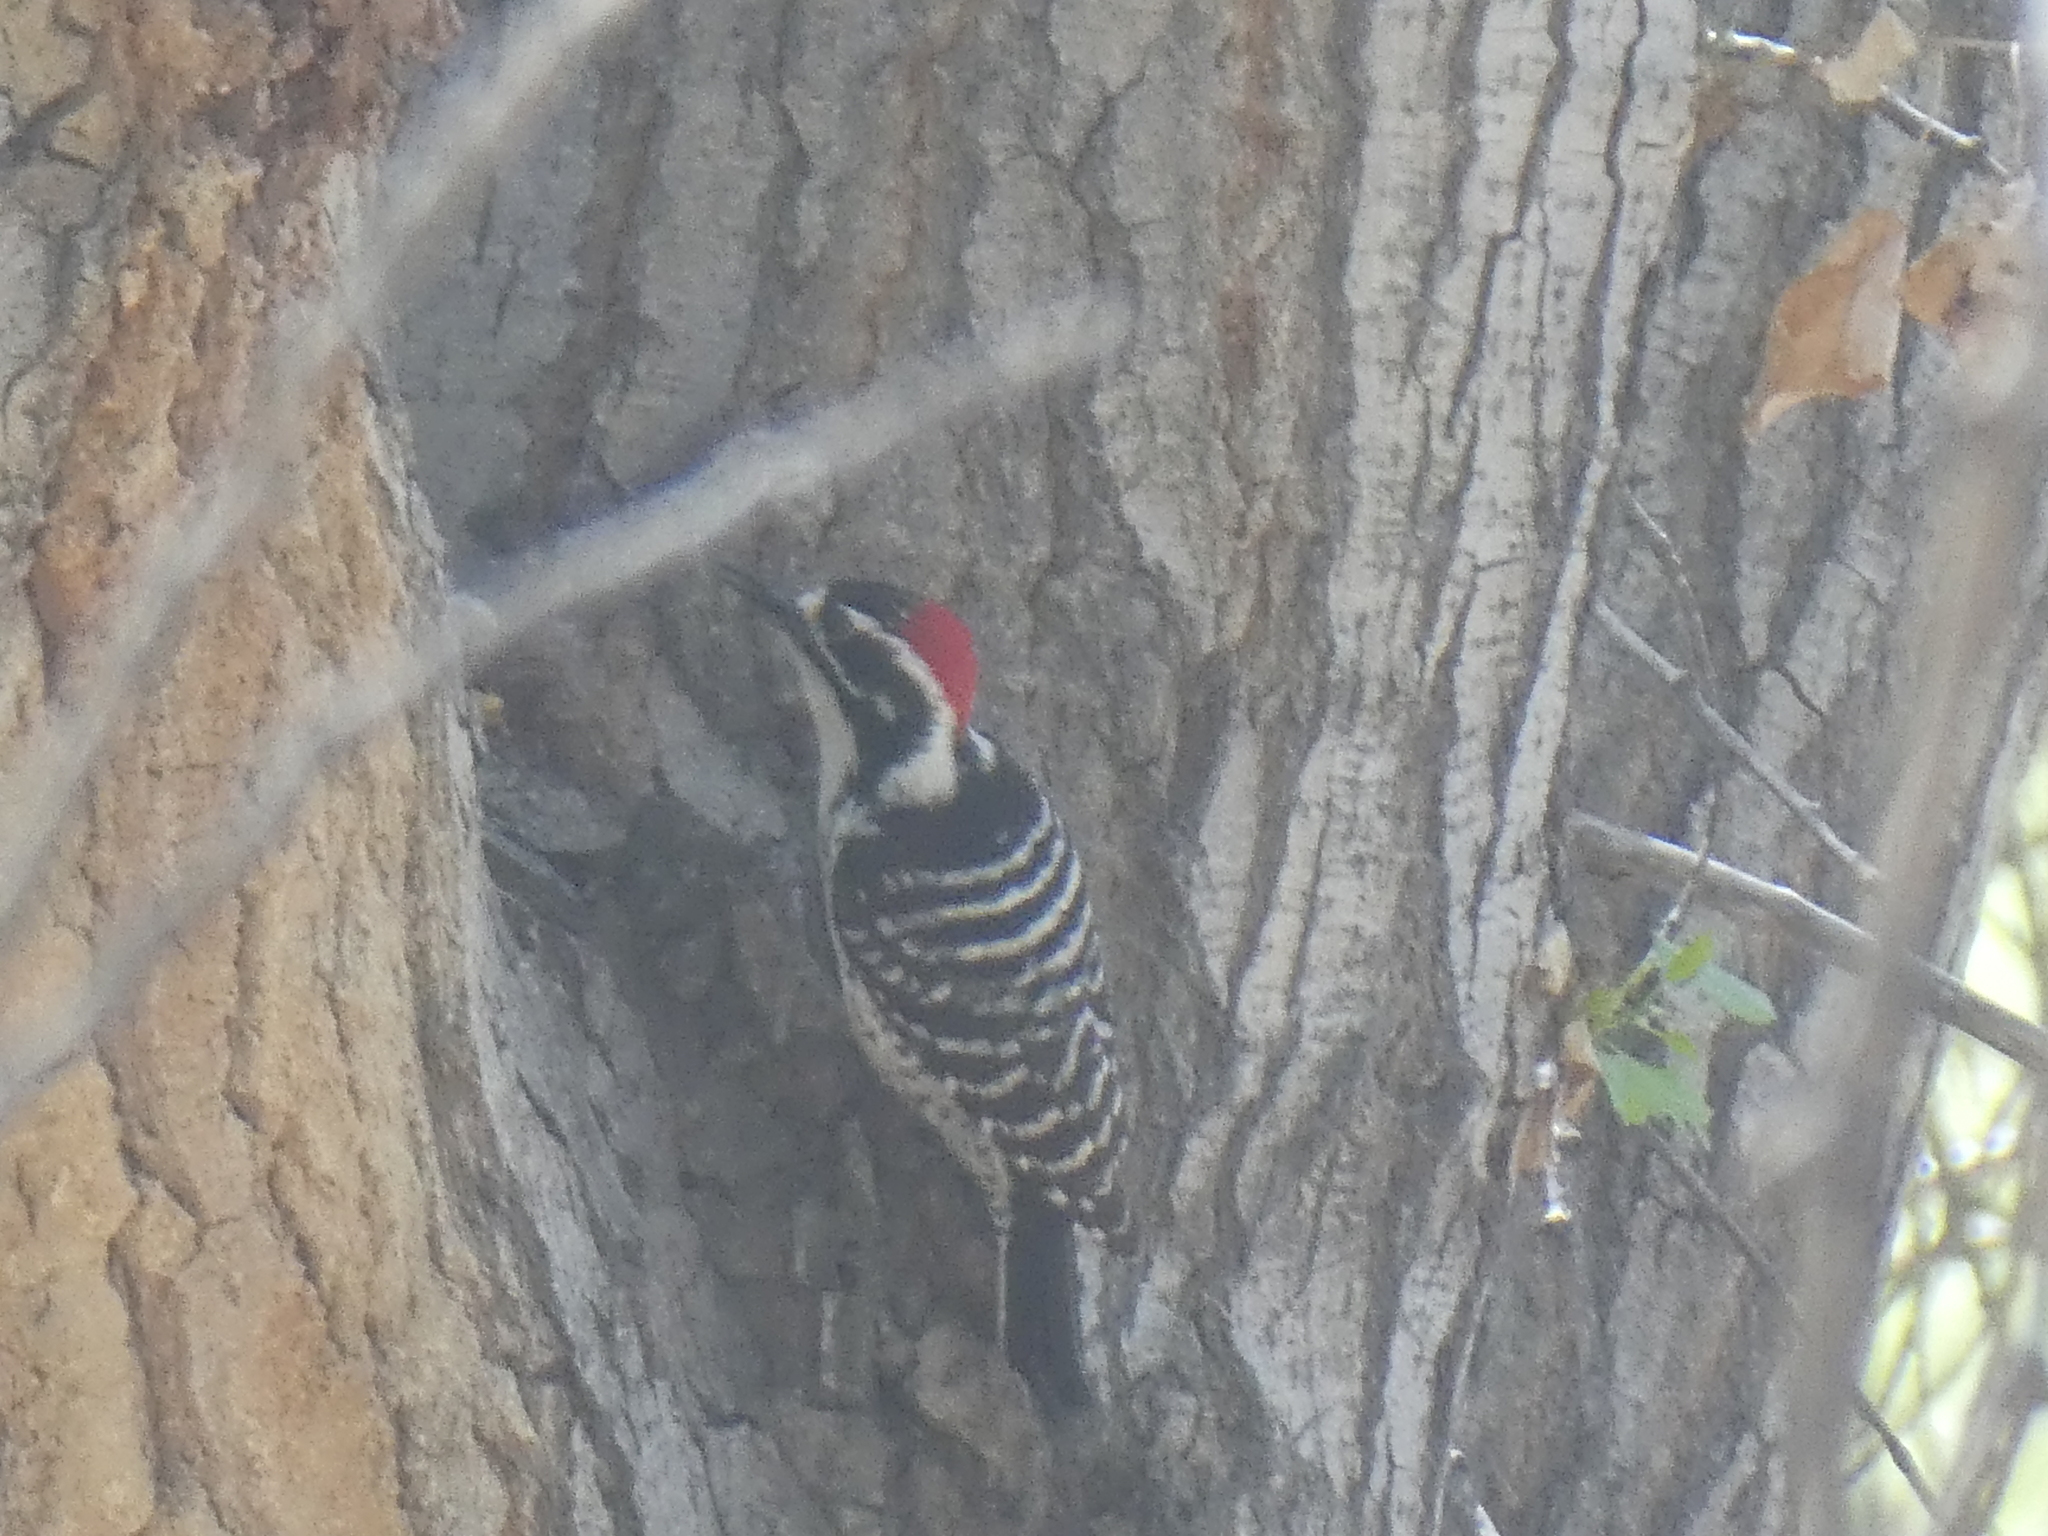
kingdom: Animalia
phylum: Chordata
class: Aves
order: Piciformes
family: Picidae
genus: Dryobates
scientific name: Dryobates nuttallii
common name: Nuttall's woodpecker
